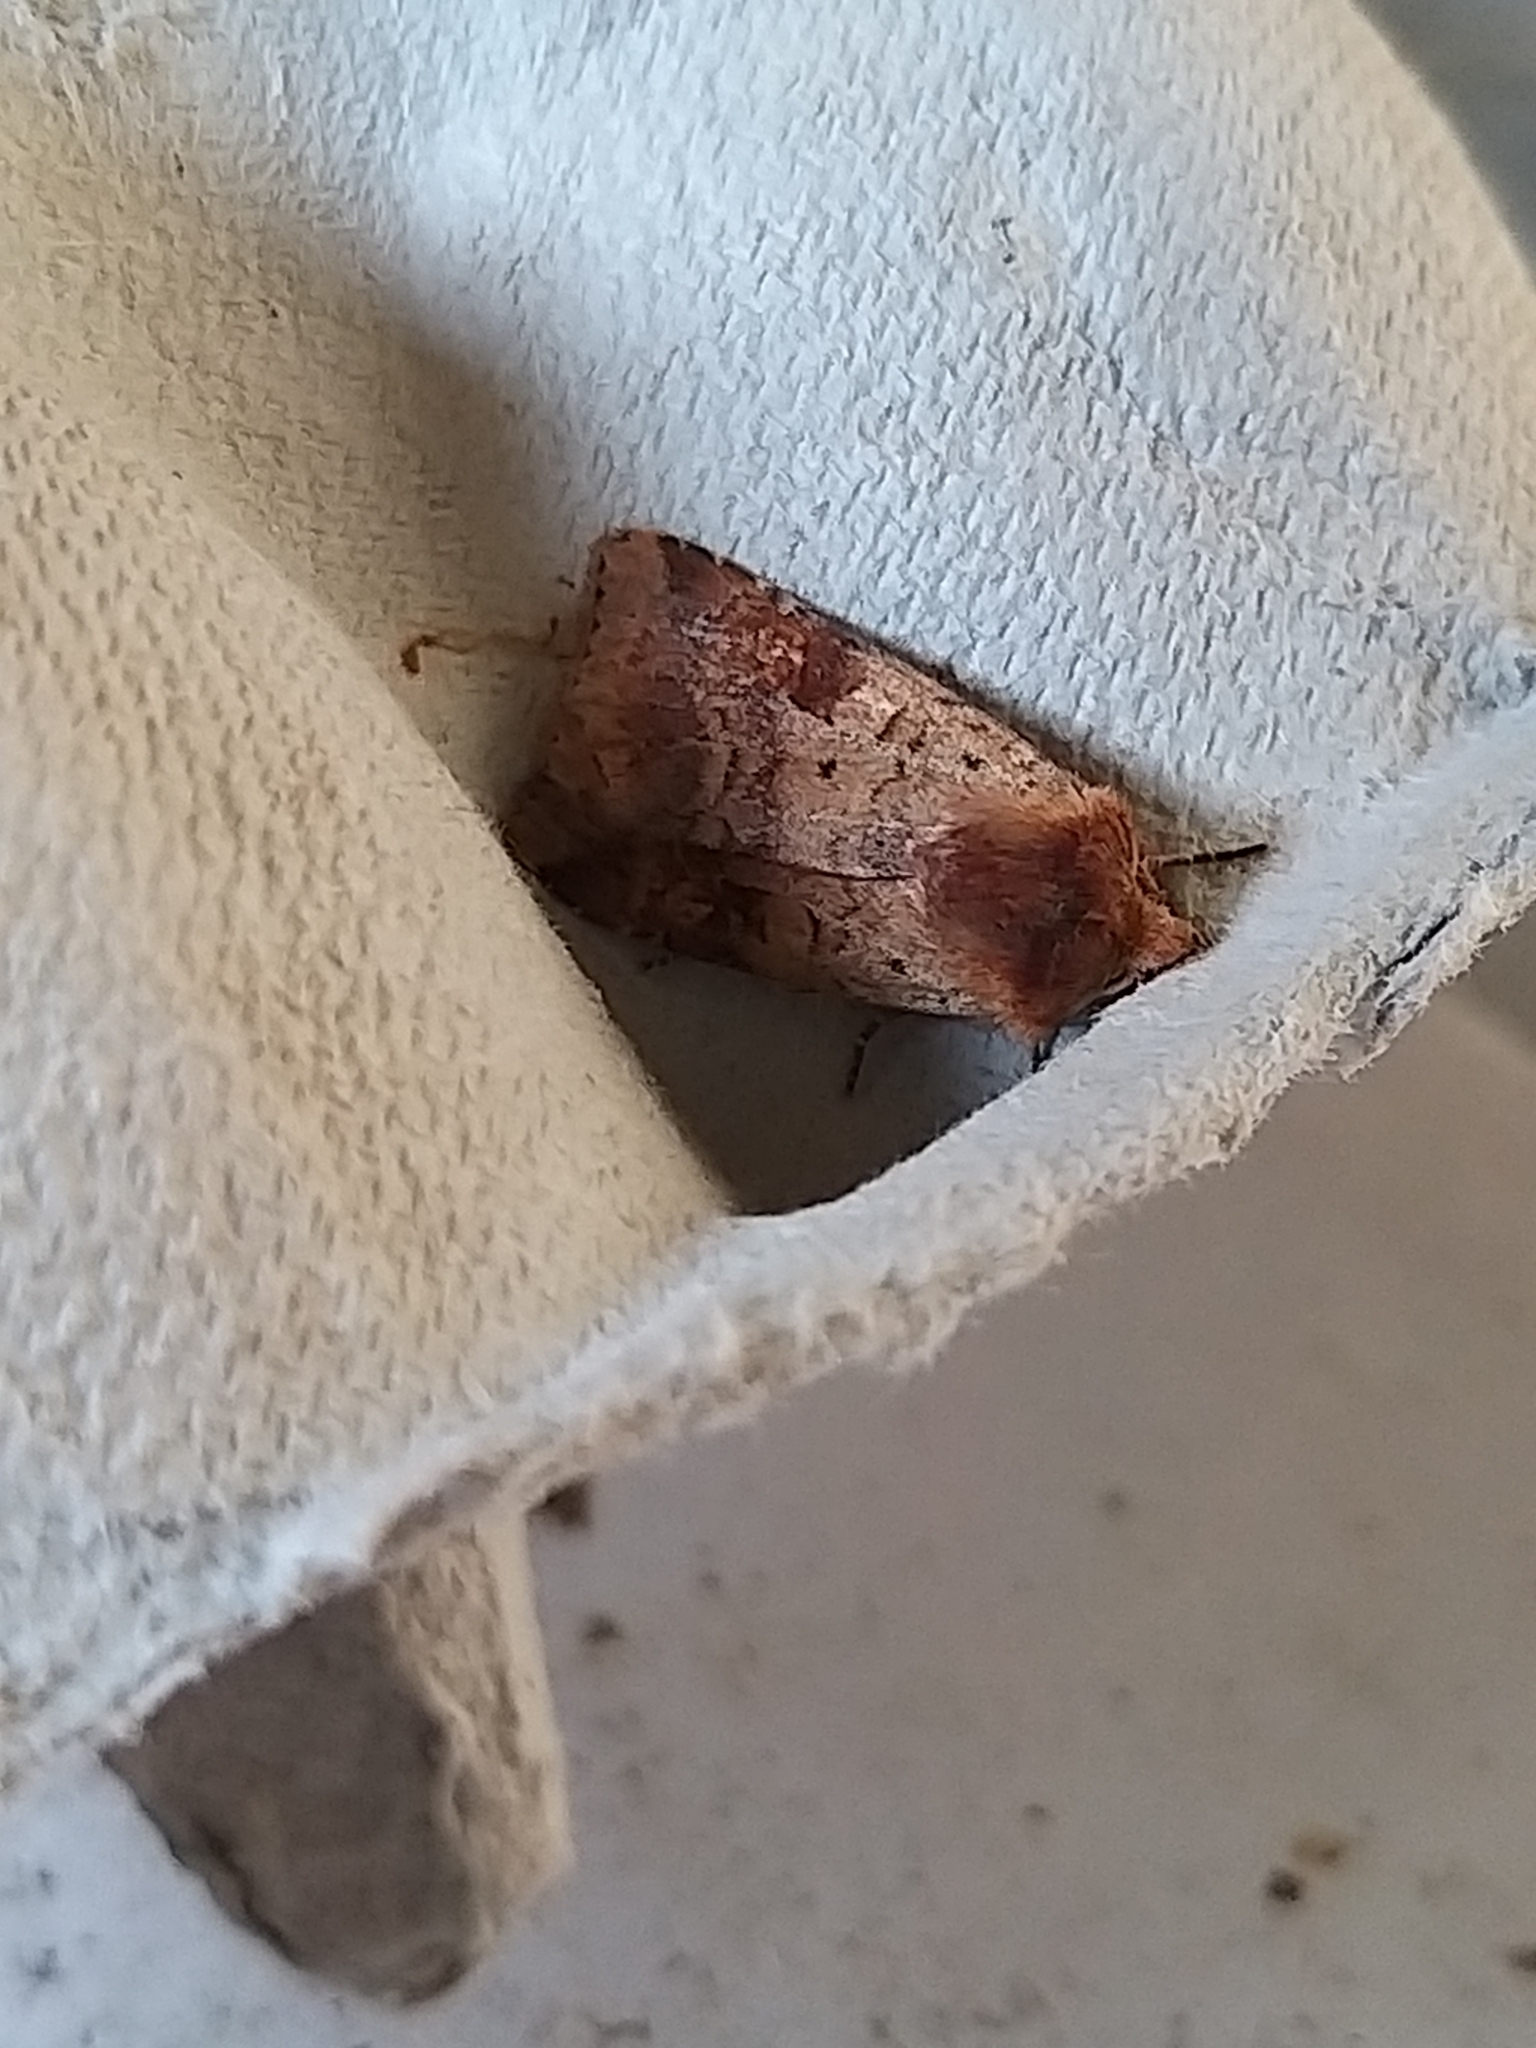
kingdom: Animalia
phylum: Arthropoda
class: Insecta
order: Lepidoptera
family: Noctuidae
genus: Diarsia
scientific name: Diarsia mendica
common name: Ingrailed clay
